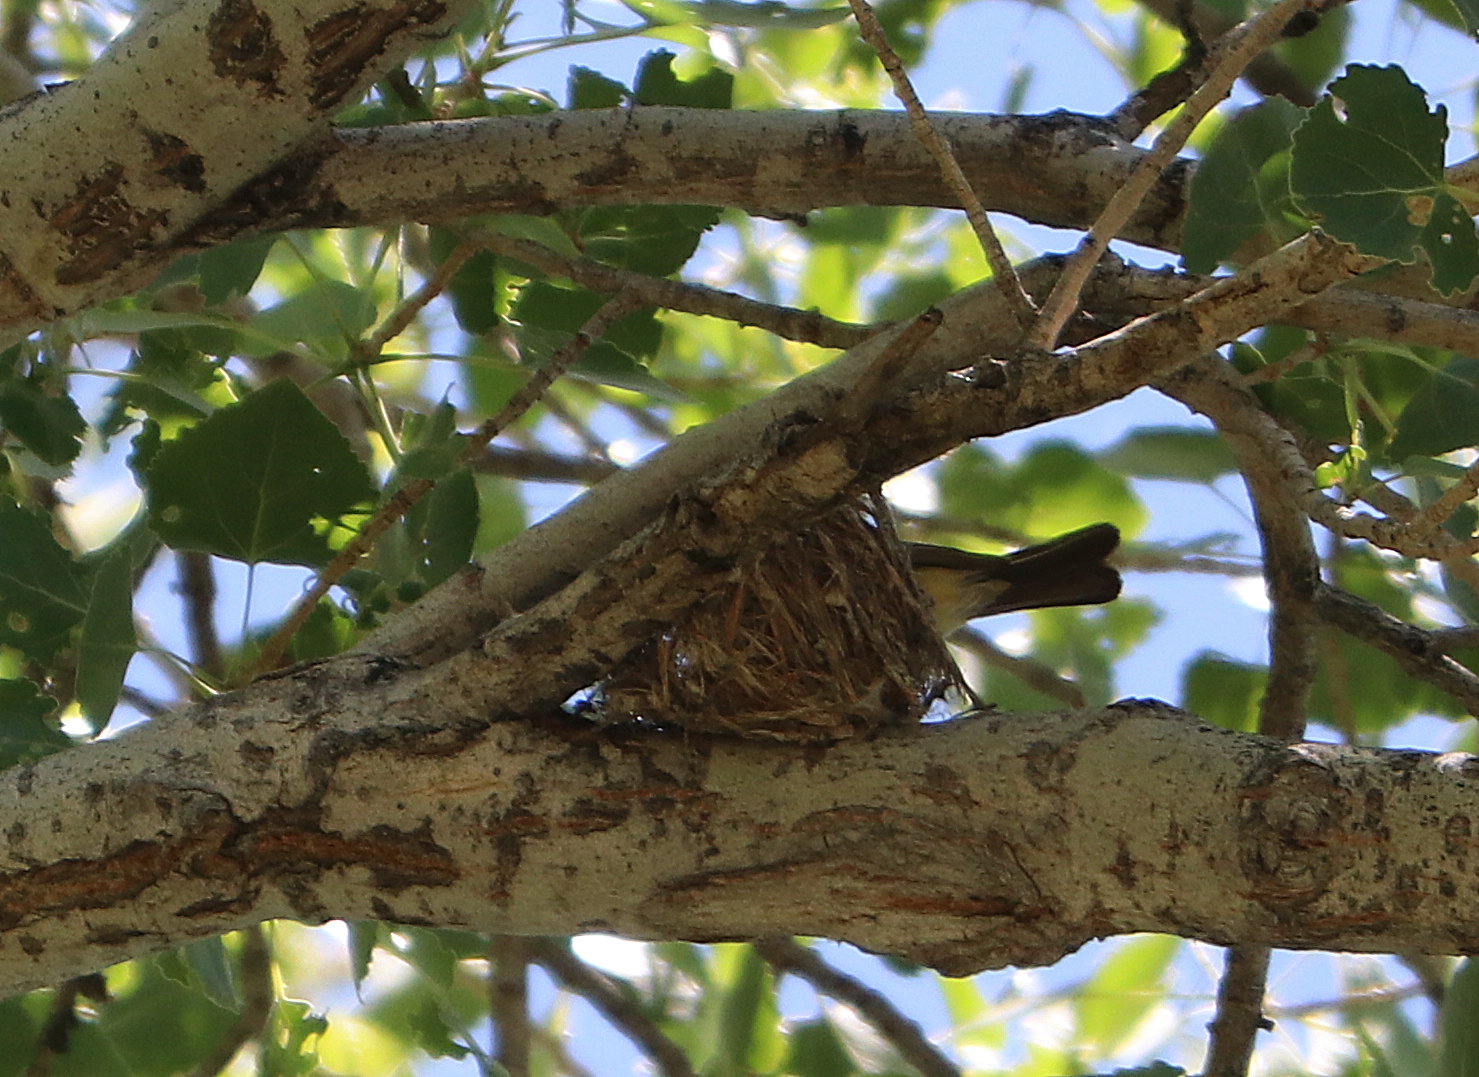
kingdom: Animalia
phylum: Chordata
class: Aves
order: Passeriformes
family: Tyrannidae
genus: Tyrannus
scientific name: Tyrannus verticalis
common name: Western kingbird
